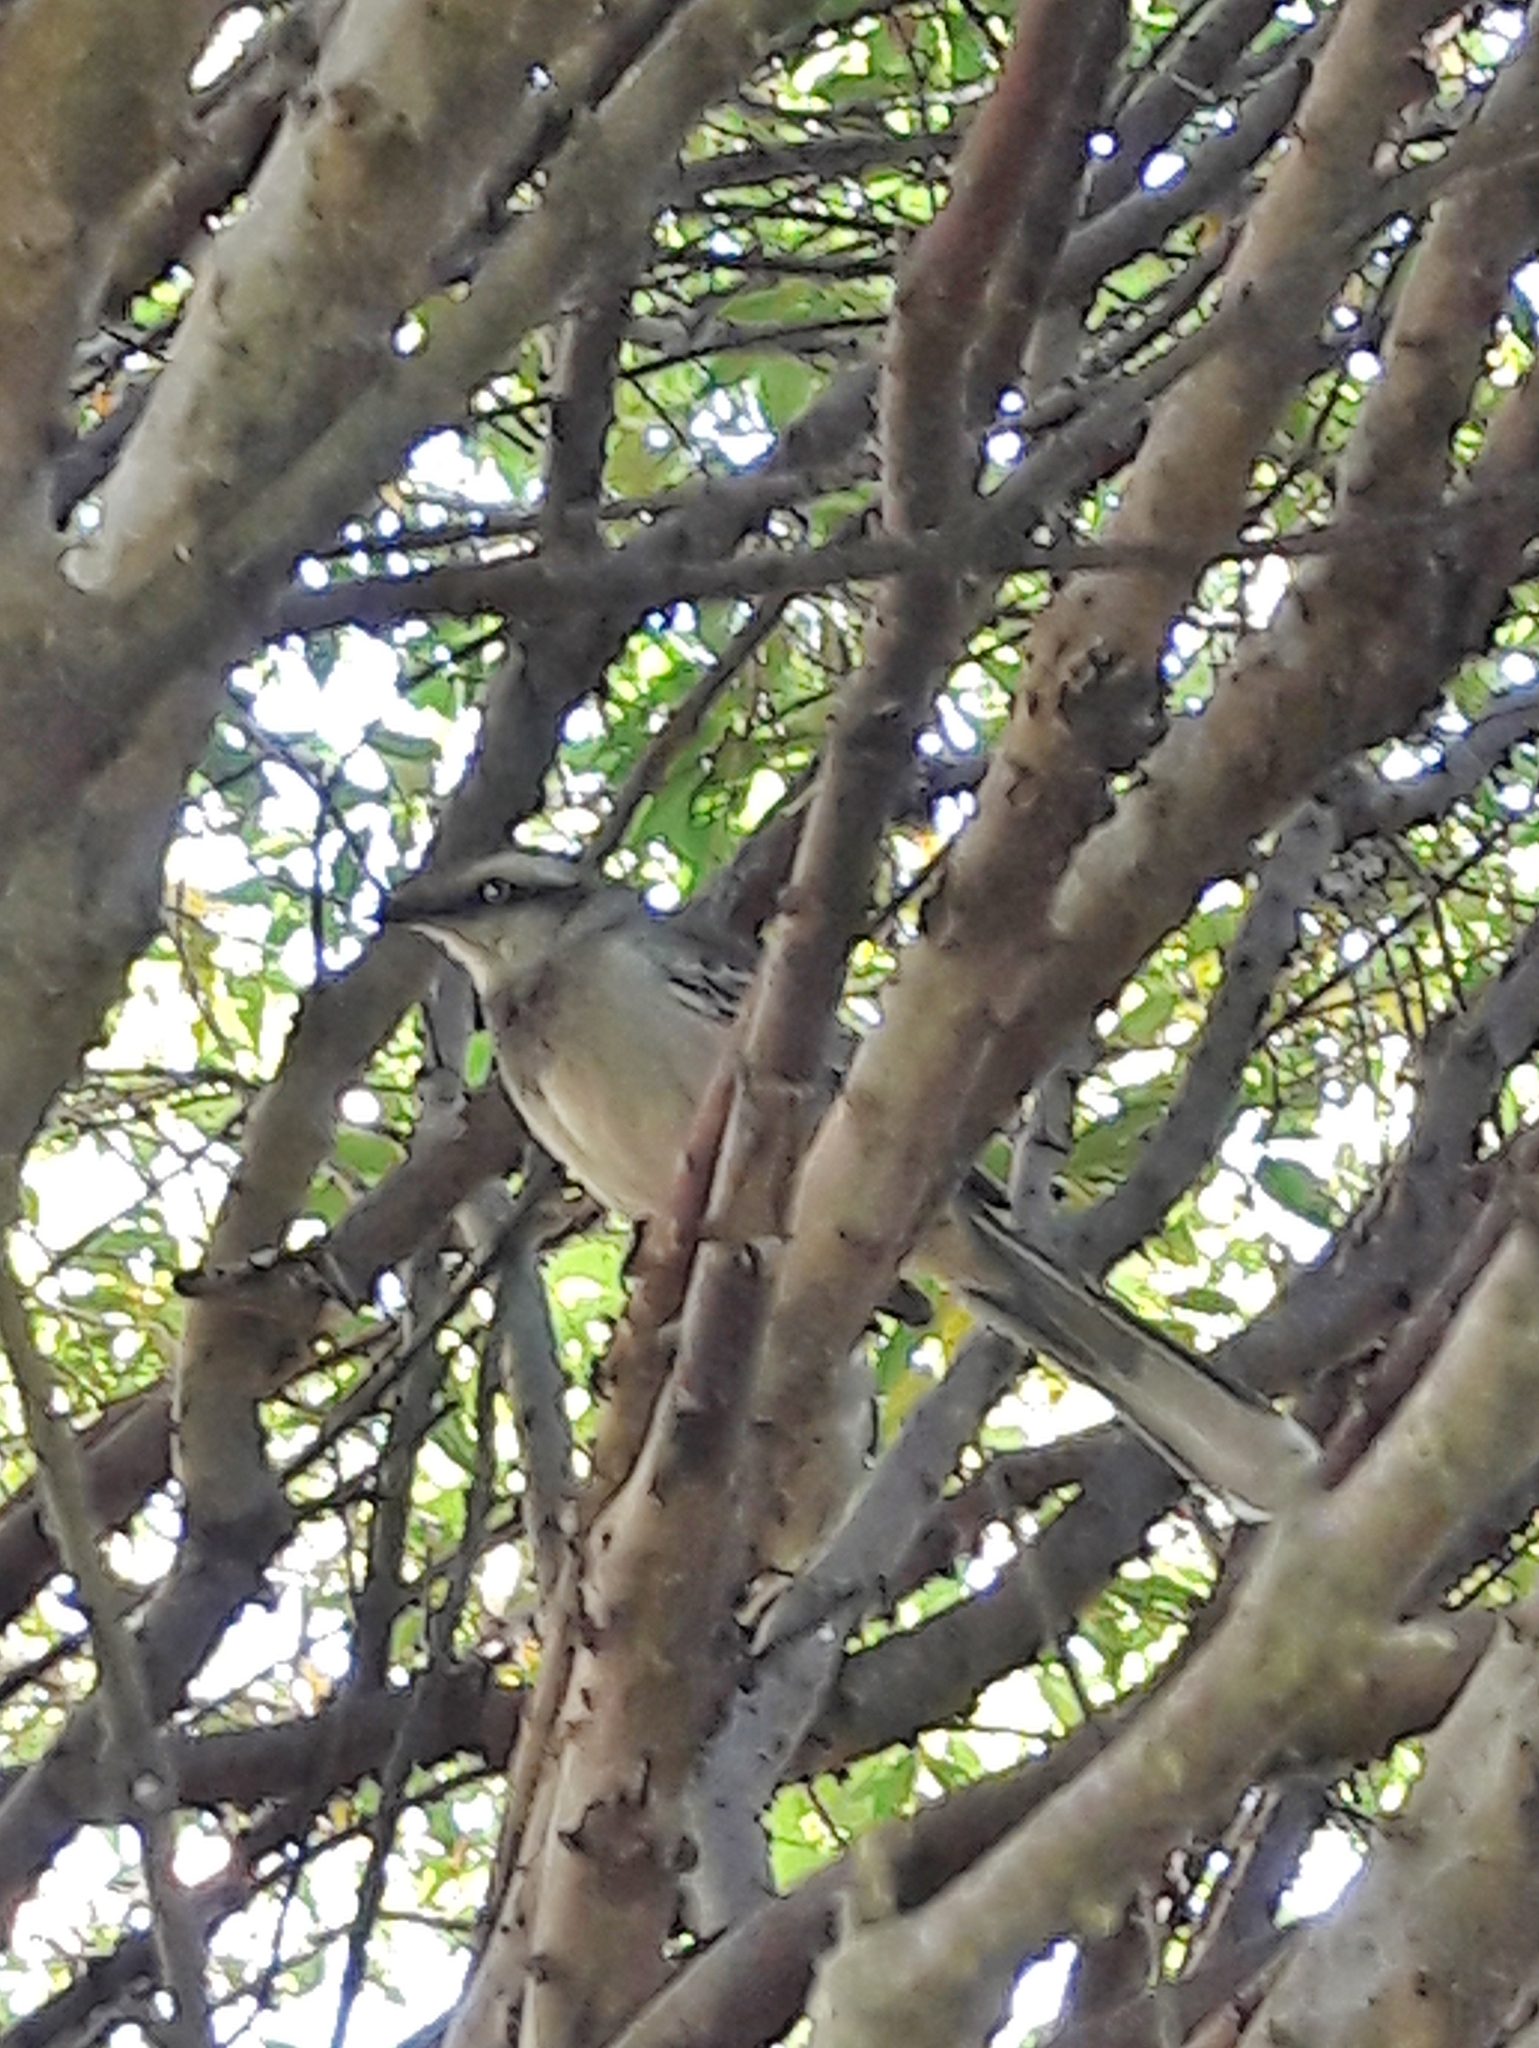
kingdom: Animalia
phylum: Chordata
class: Aves
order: Passeriformes
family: Mimidae
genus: Mimus
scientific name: Mimus saturninus
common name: Chalk-browed mockingbird
